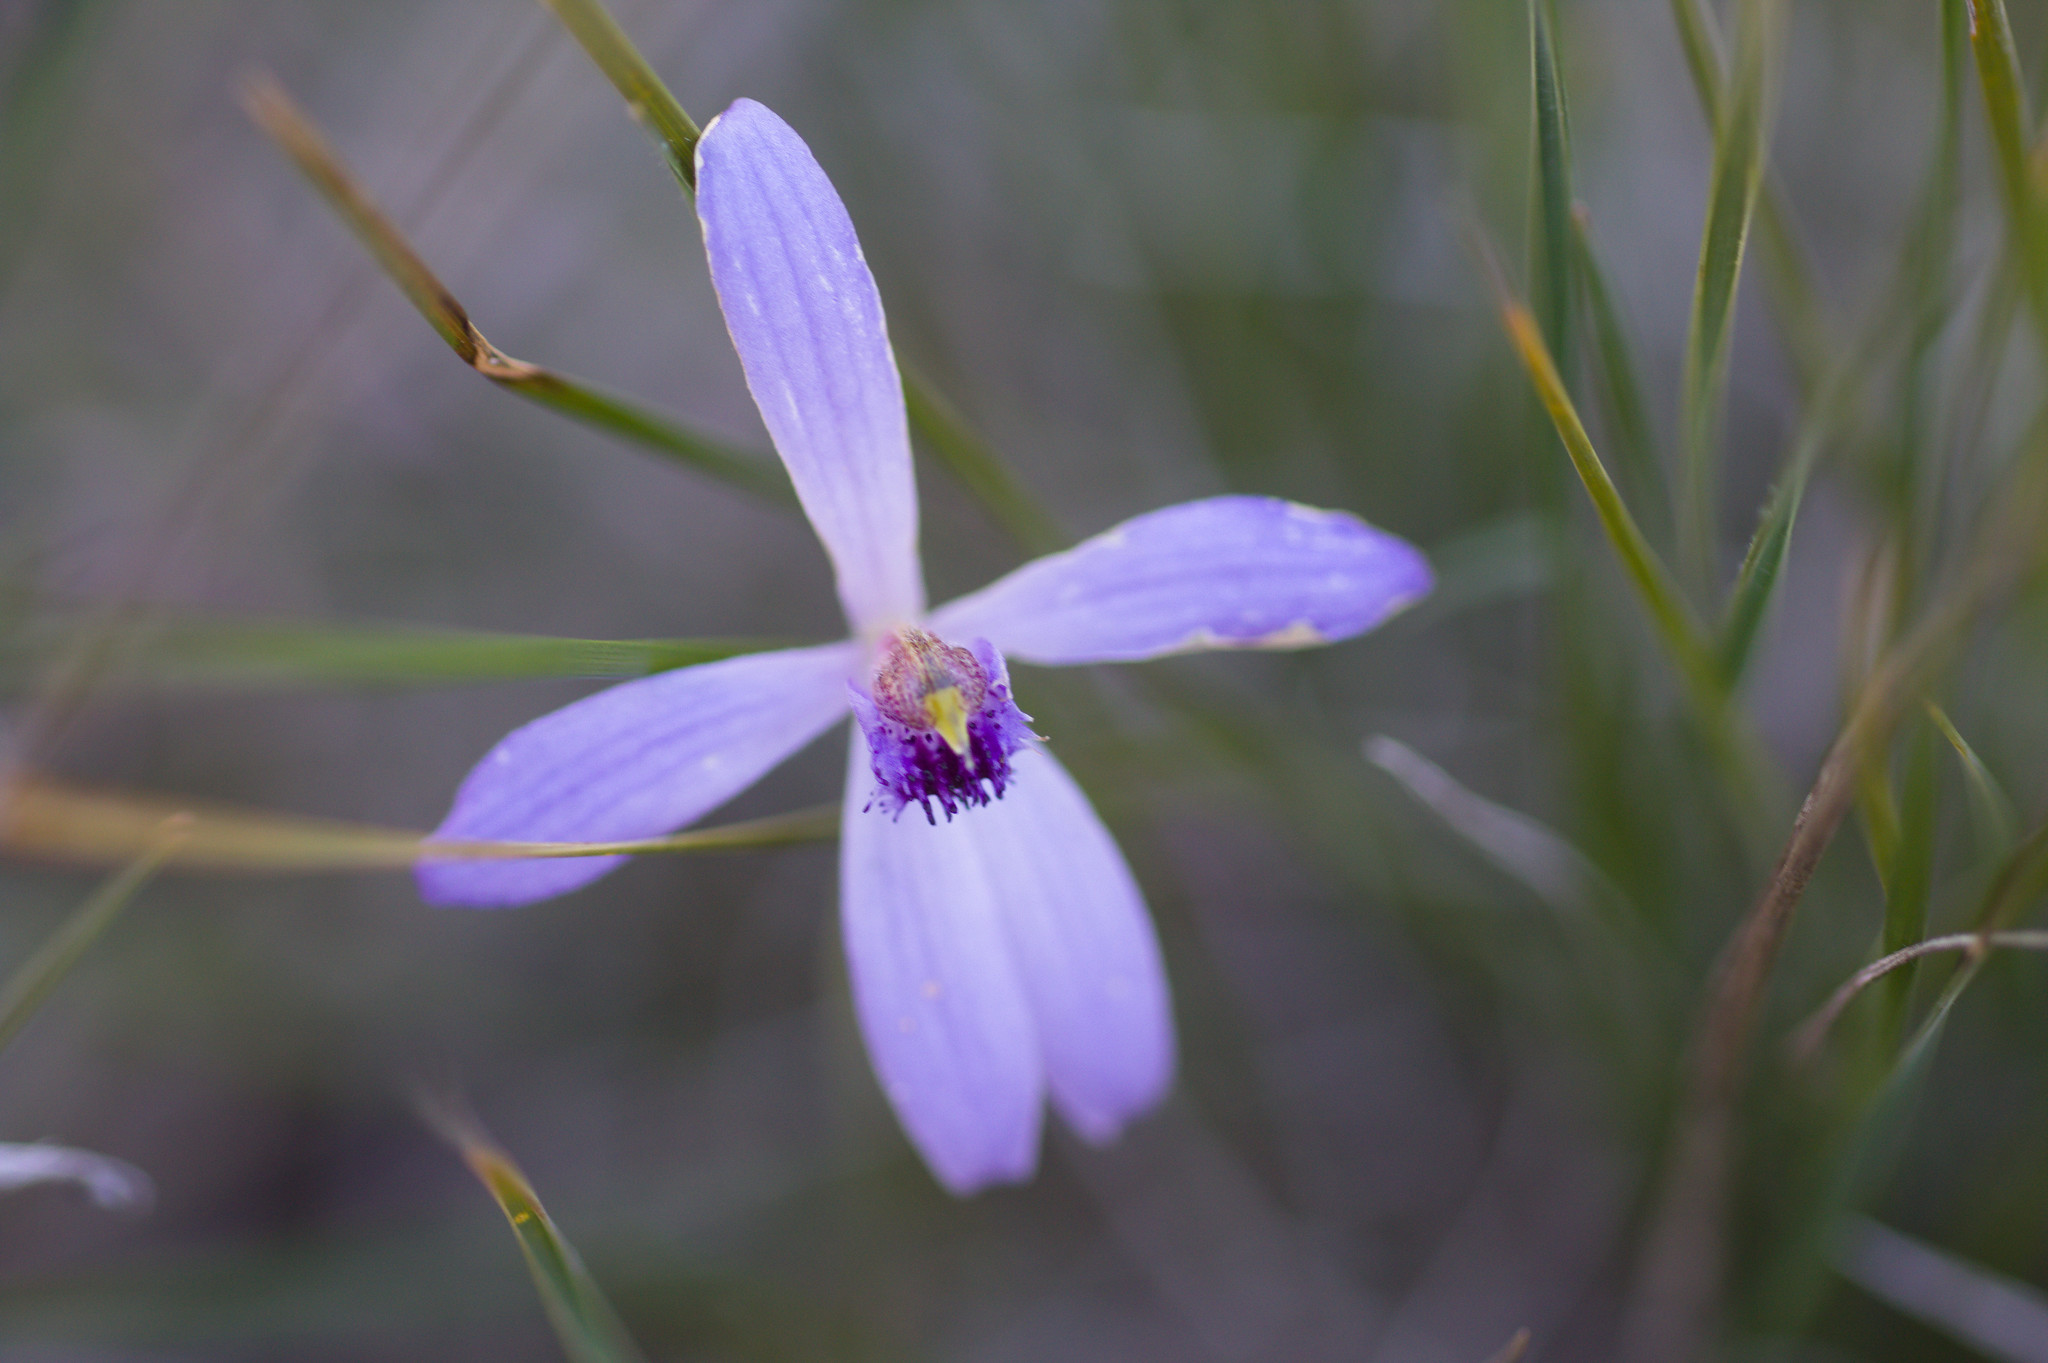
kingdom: Plantae
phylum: Tracheophyta
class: Liliopsida
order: Asparagales
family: Orchidaceae
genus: Pheladenia
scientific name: Pheladenia deformis
